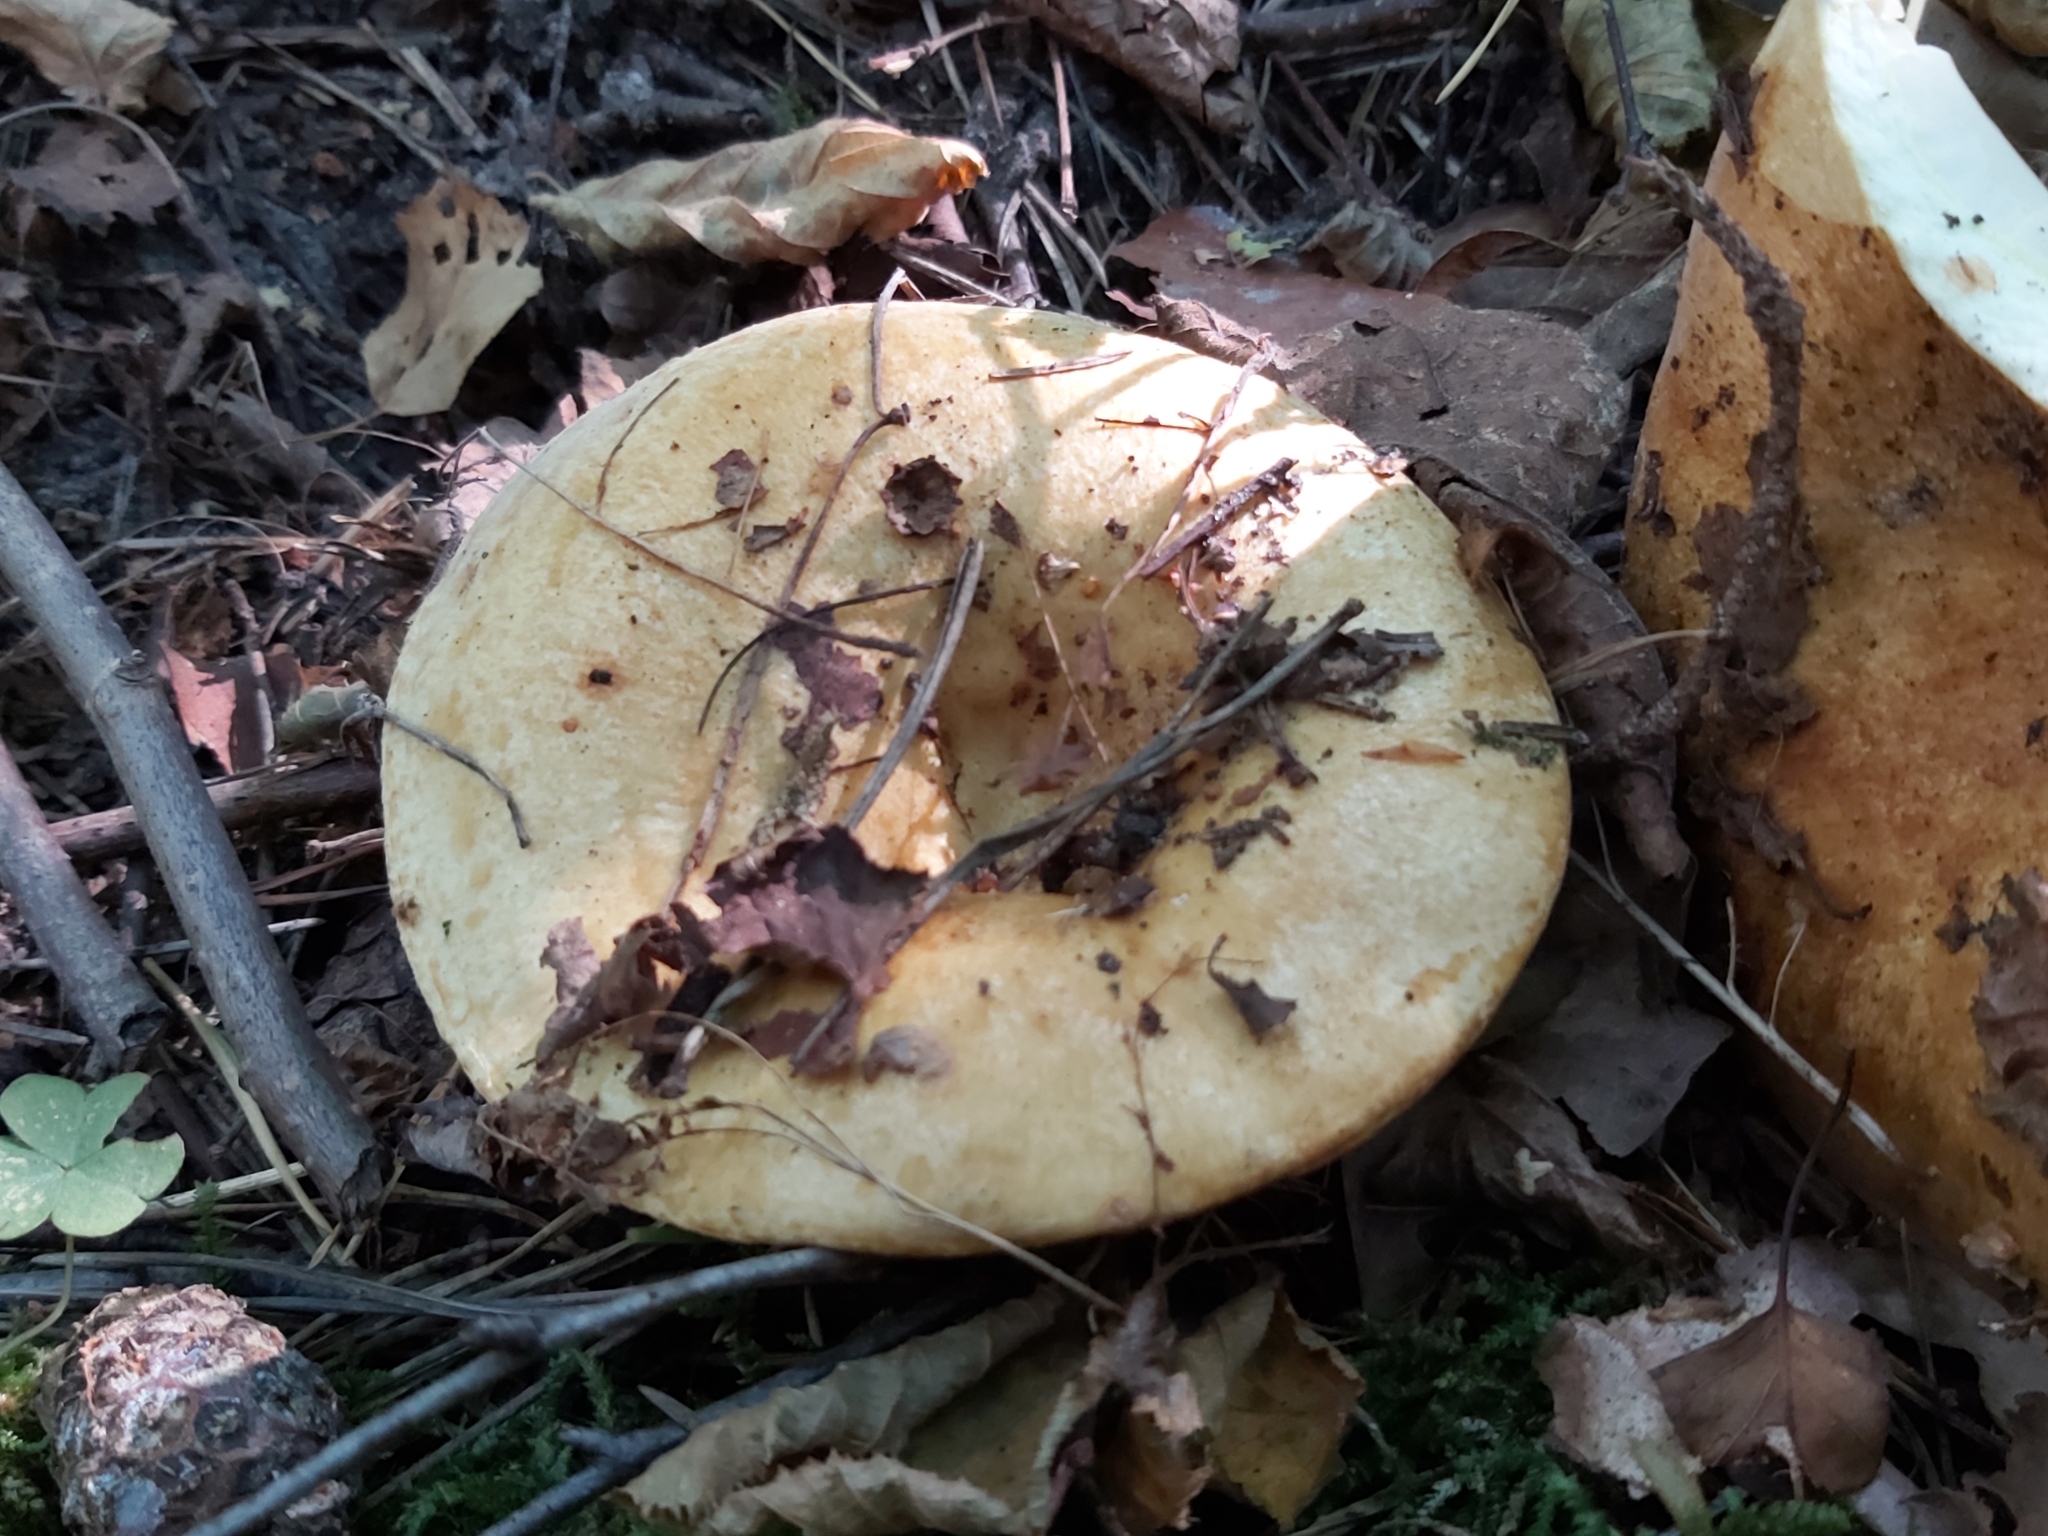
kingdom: Fungi
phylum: Basidiomycota
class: Agaricomycetes
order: Russulales
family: Russulaceae
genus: Lactarius
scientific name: Lactarius scrobiculatus
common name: Spotted milkcap
